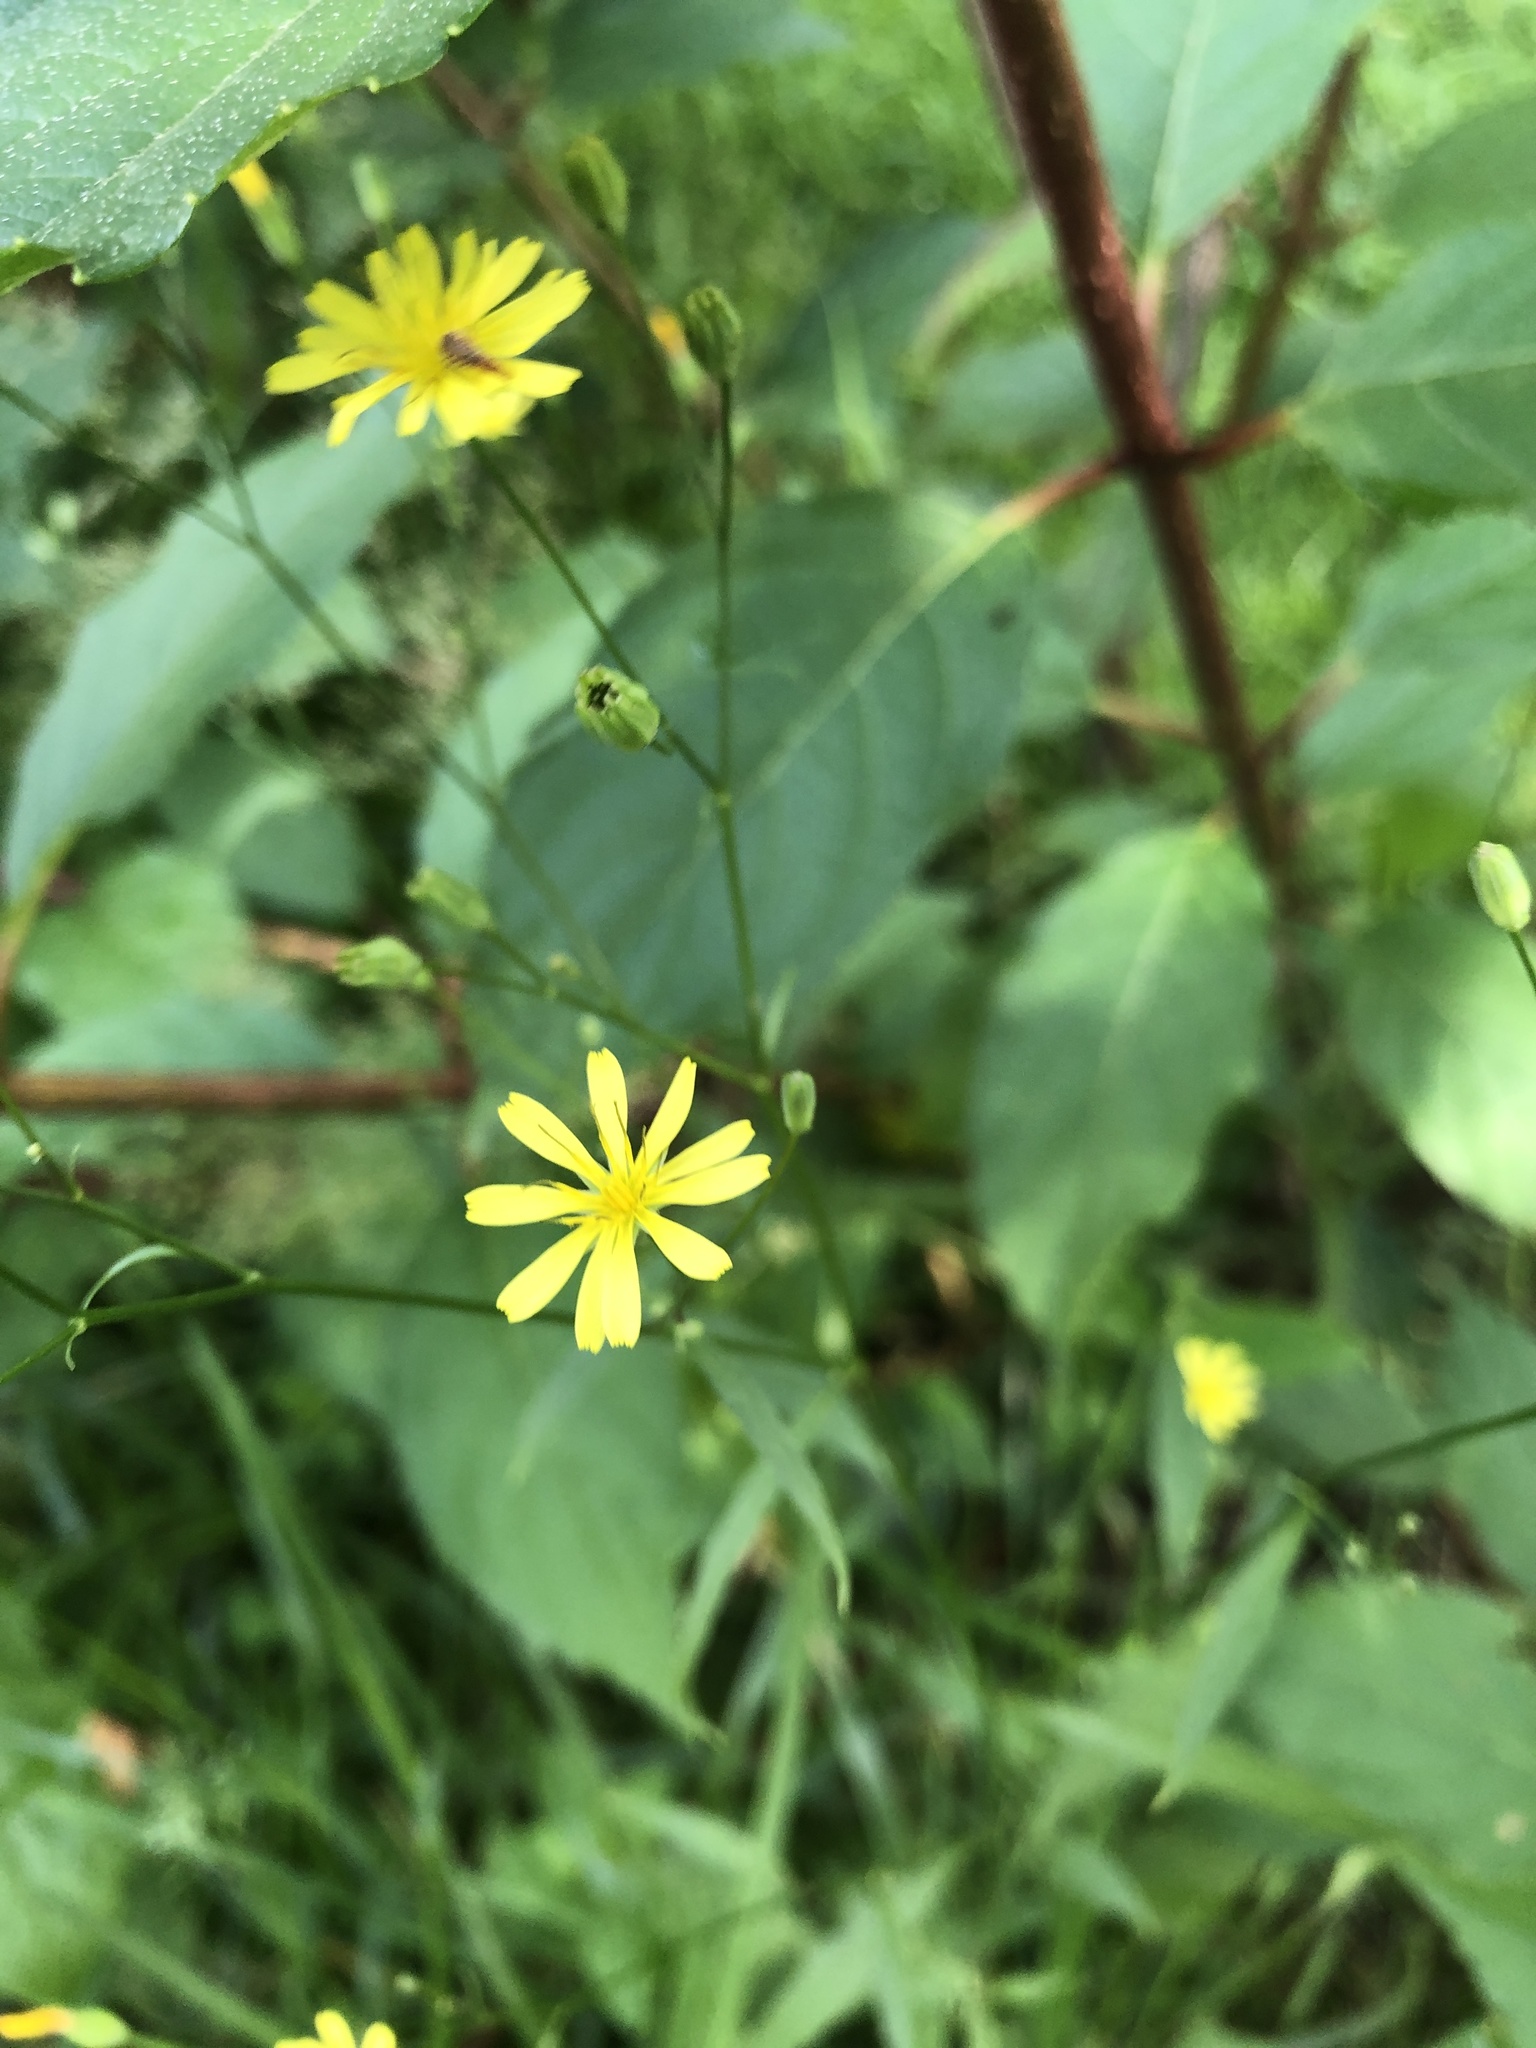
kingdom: Plantae
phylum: Tracheophyta
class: Magnoliopsida
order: Asterales
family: Asteraceae
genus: Lapsana
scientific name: Lapsana communis
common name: Nipplewort
